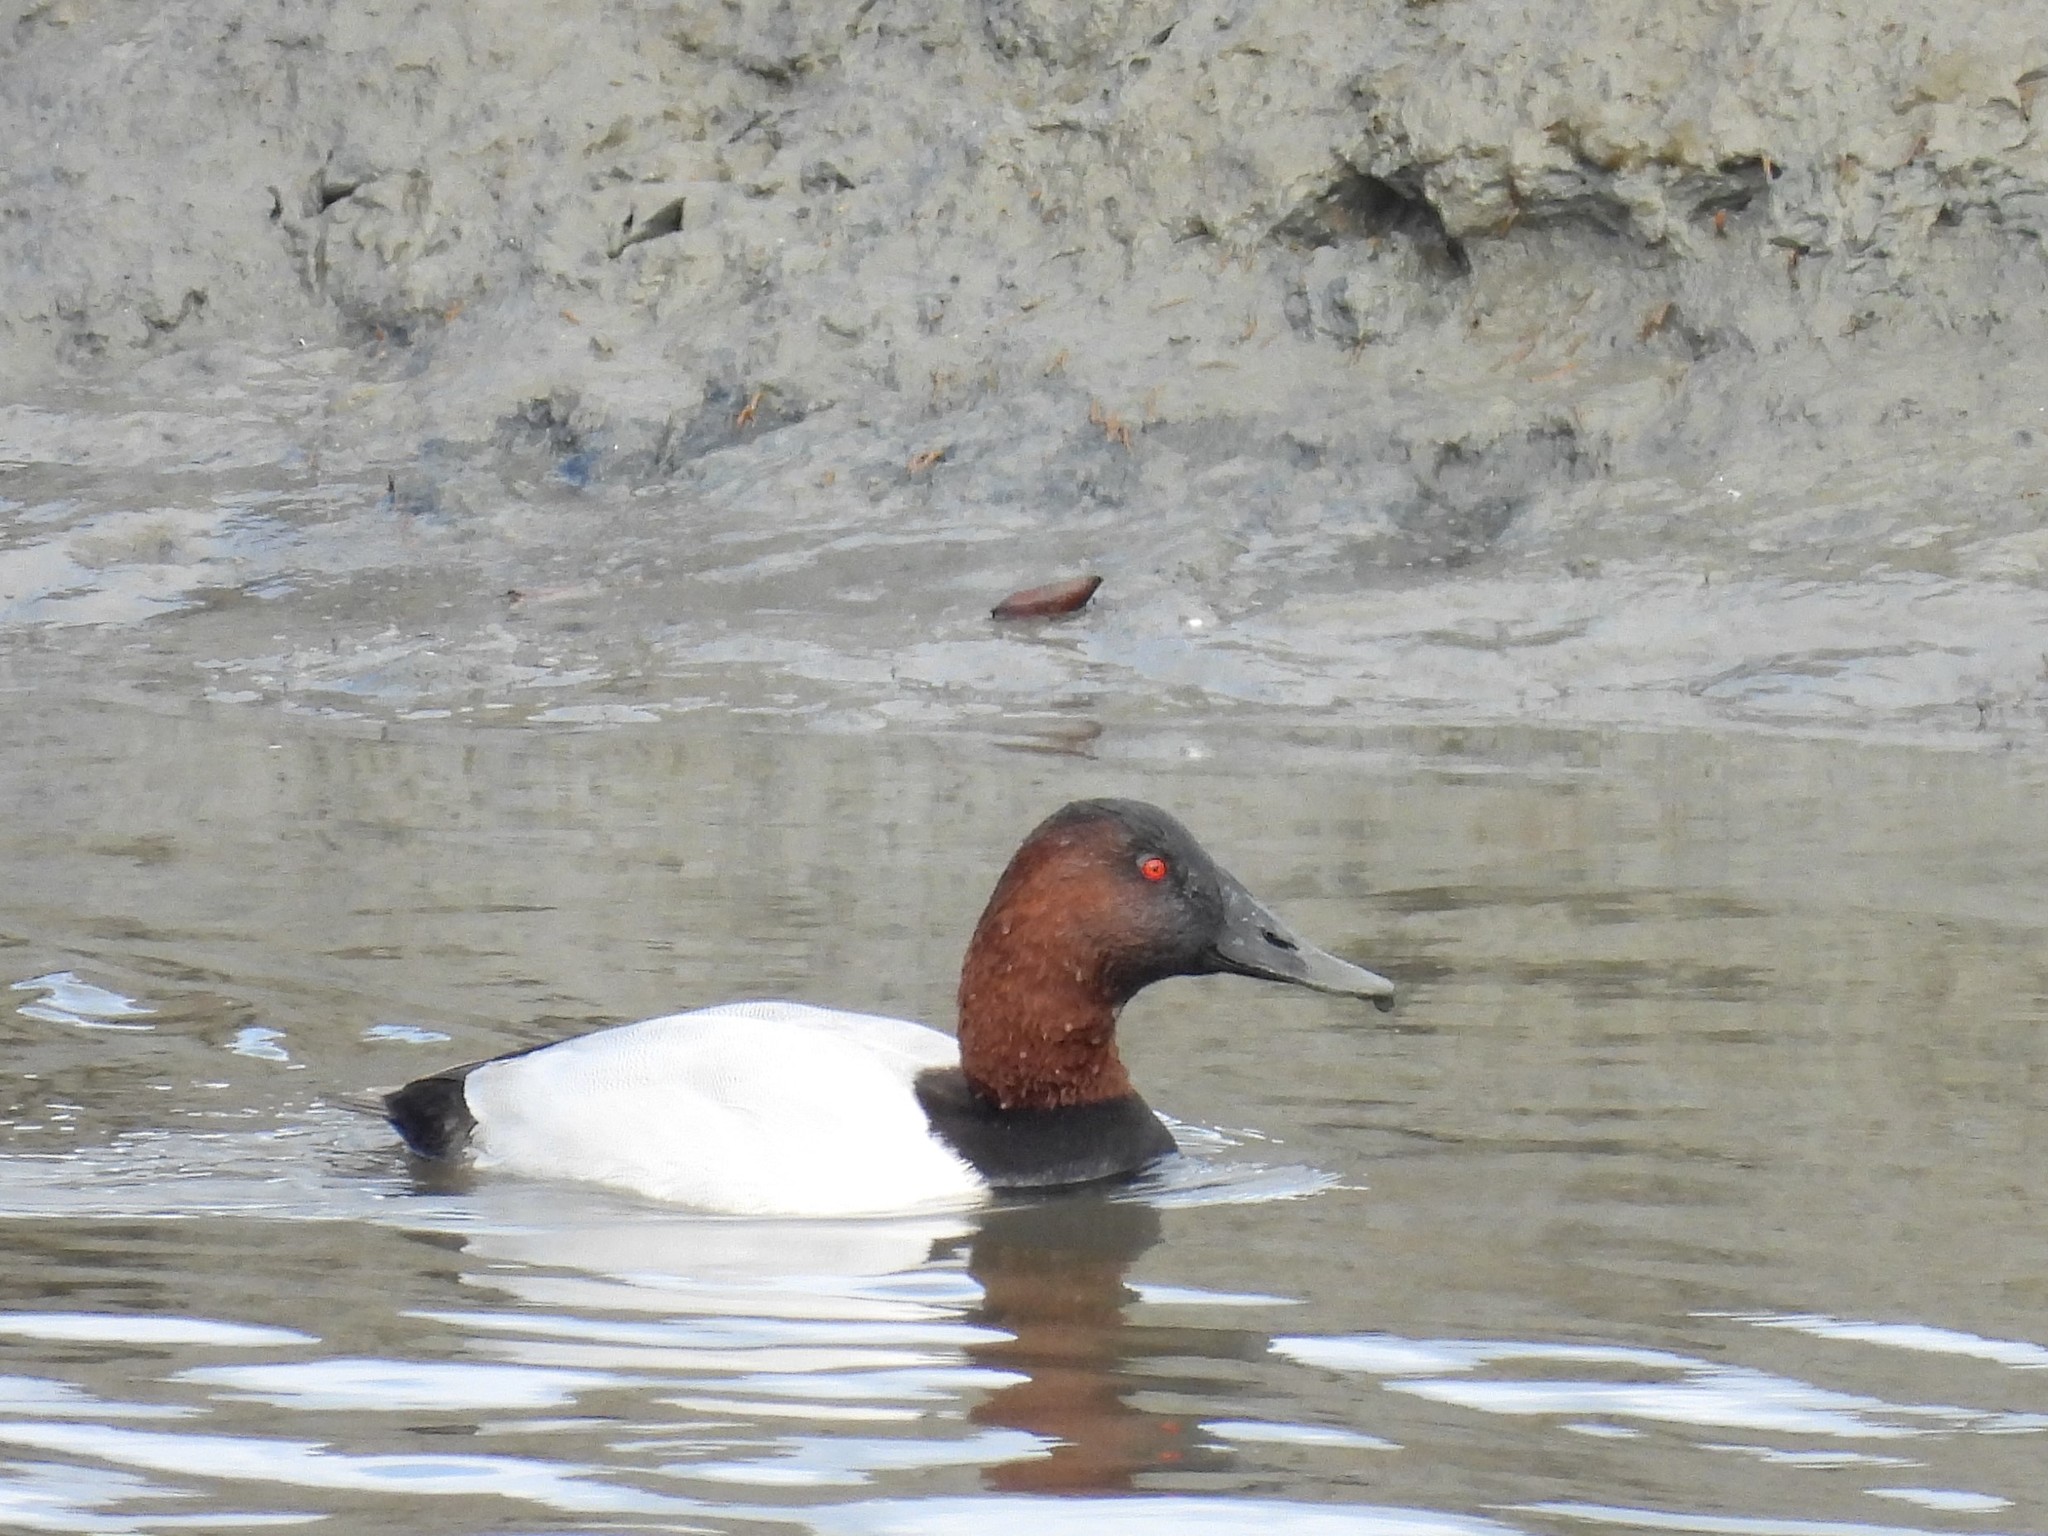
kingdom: Animalia
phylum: Chordata
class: Aves
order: Anseriformes
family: Anatidae
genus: Aythya
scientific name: Aythya valisineria
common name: Canvasback
